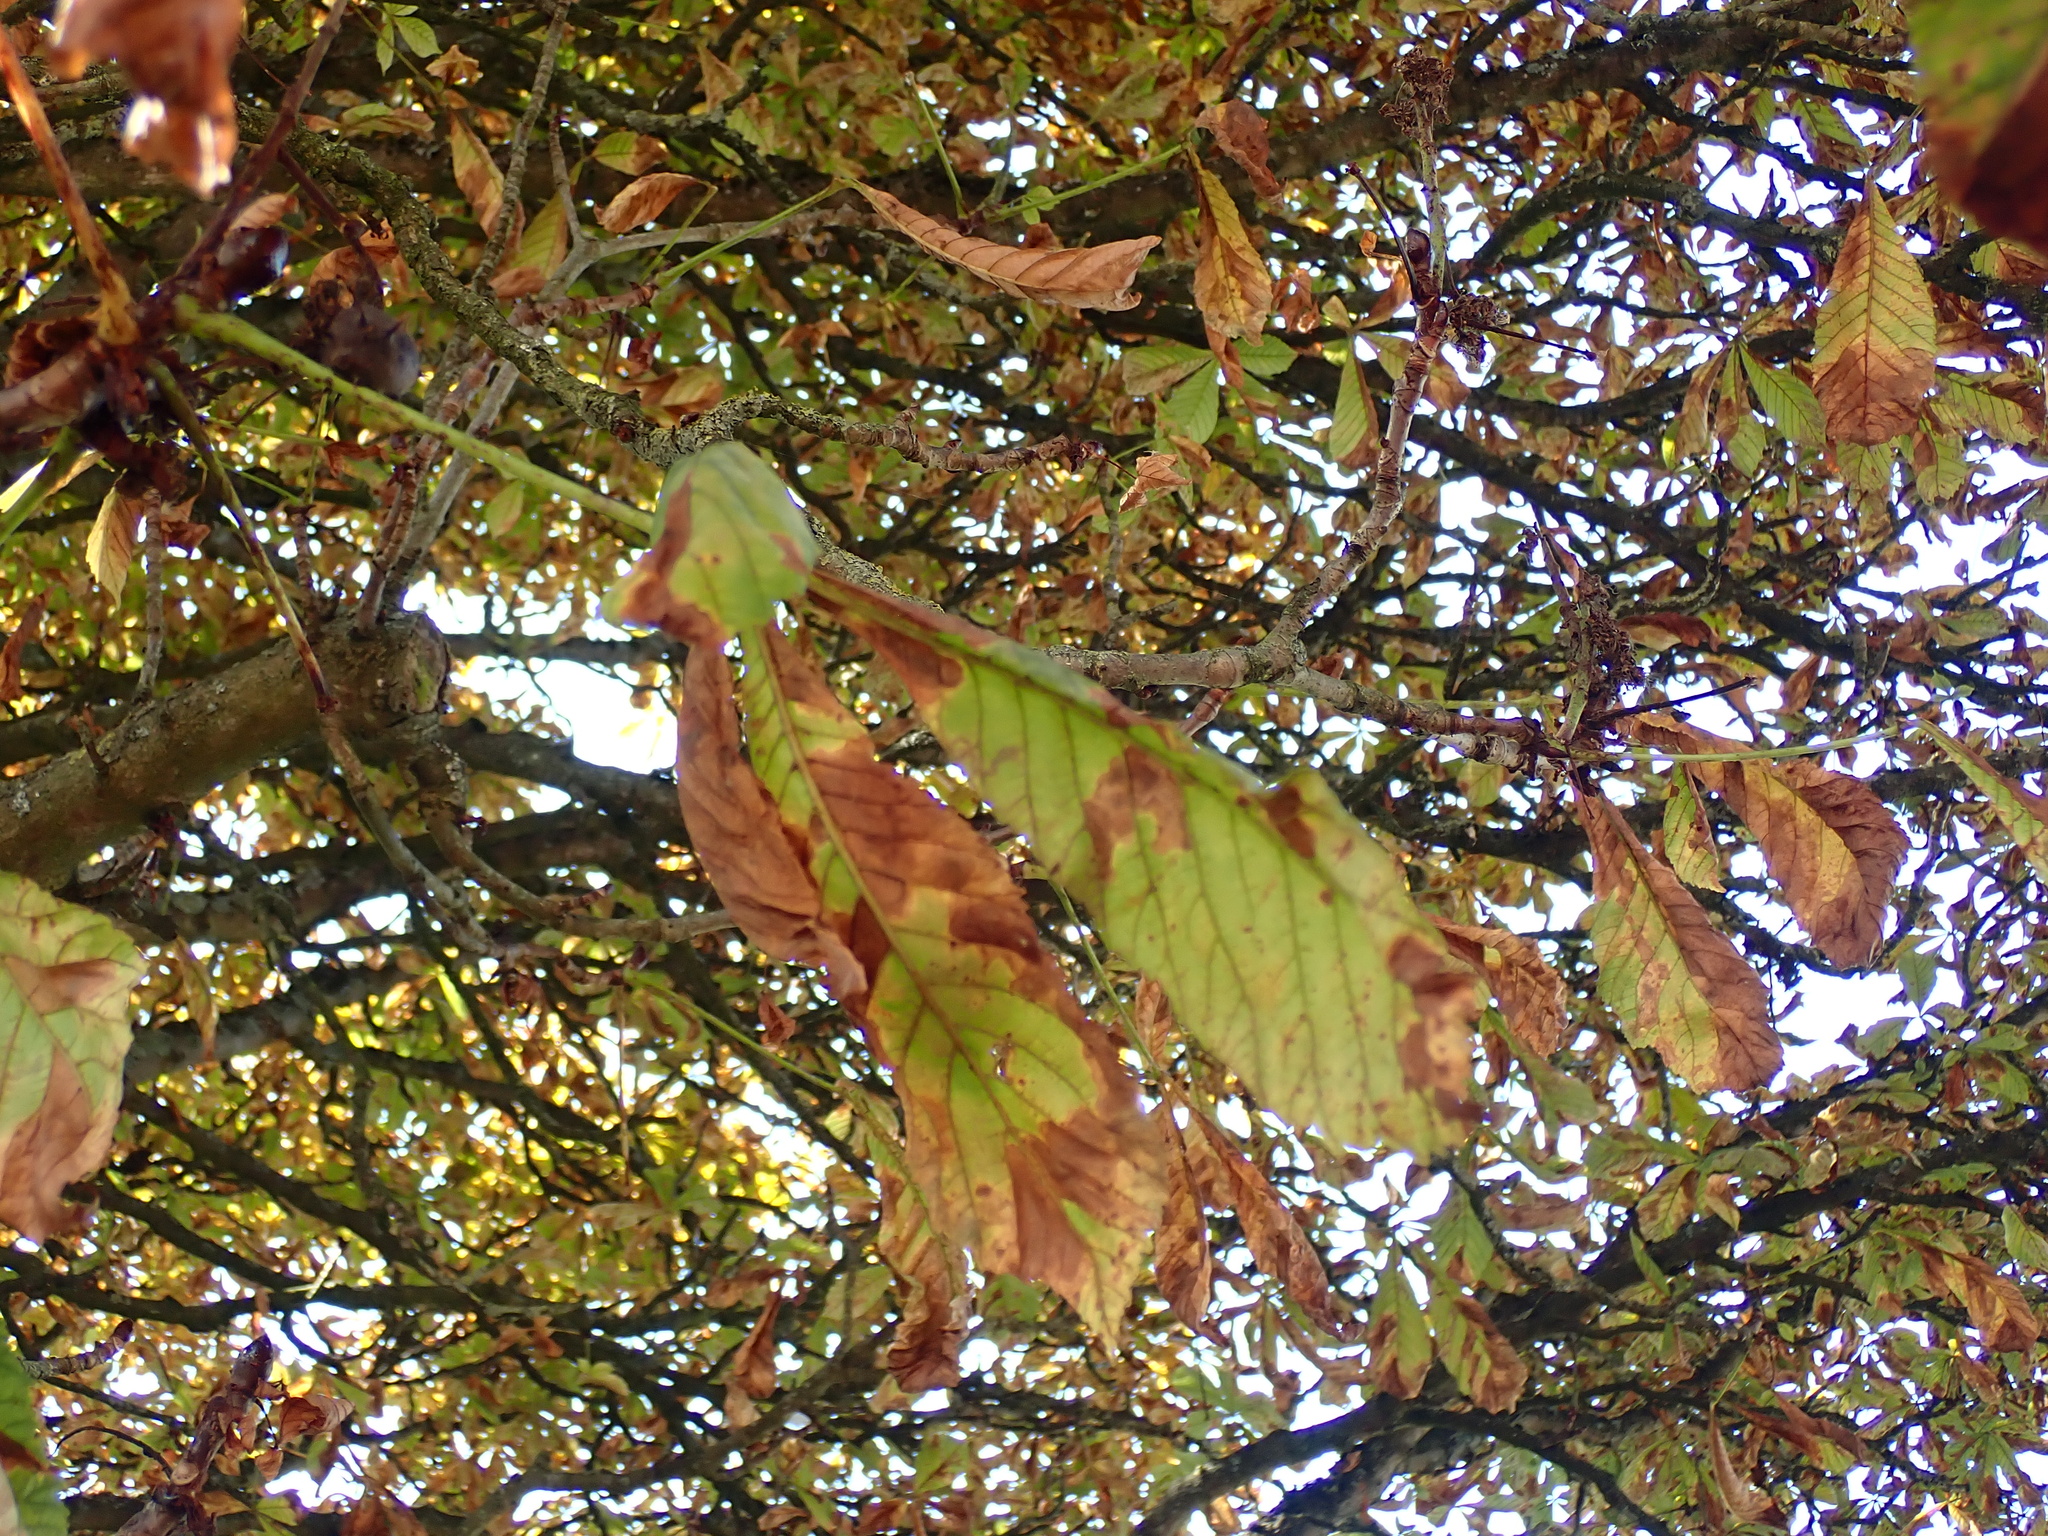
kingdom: Plantae
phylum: Tracheophyta
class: Magnoliopsida
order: Sapindales
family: Sapindaceae
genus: Aesculus
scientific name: Aesculus hippocastanum
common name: Horse-chestnut
